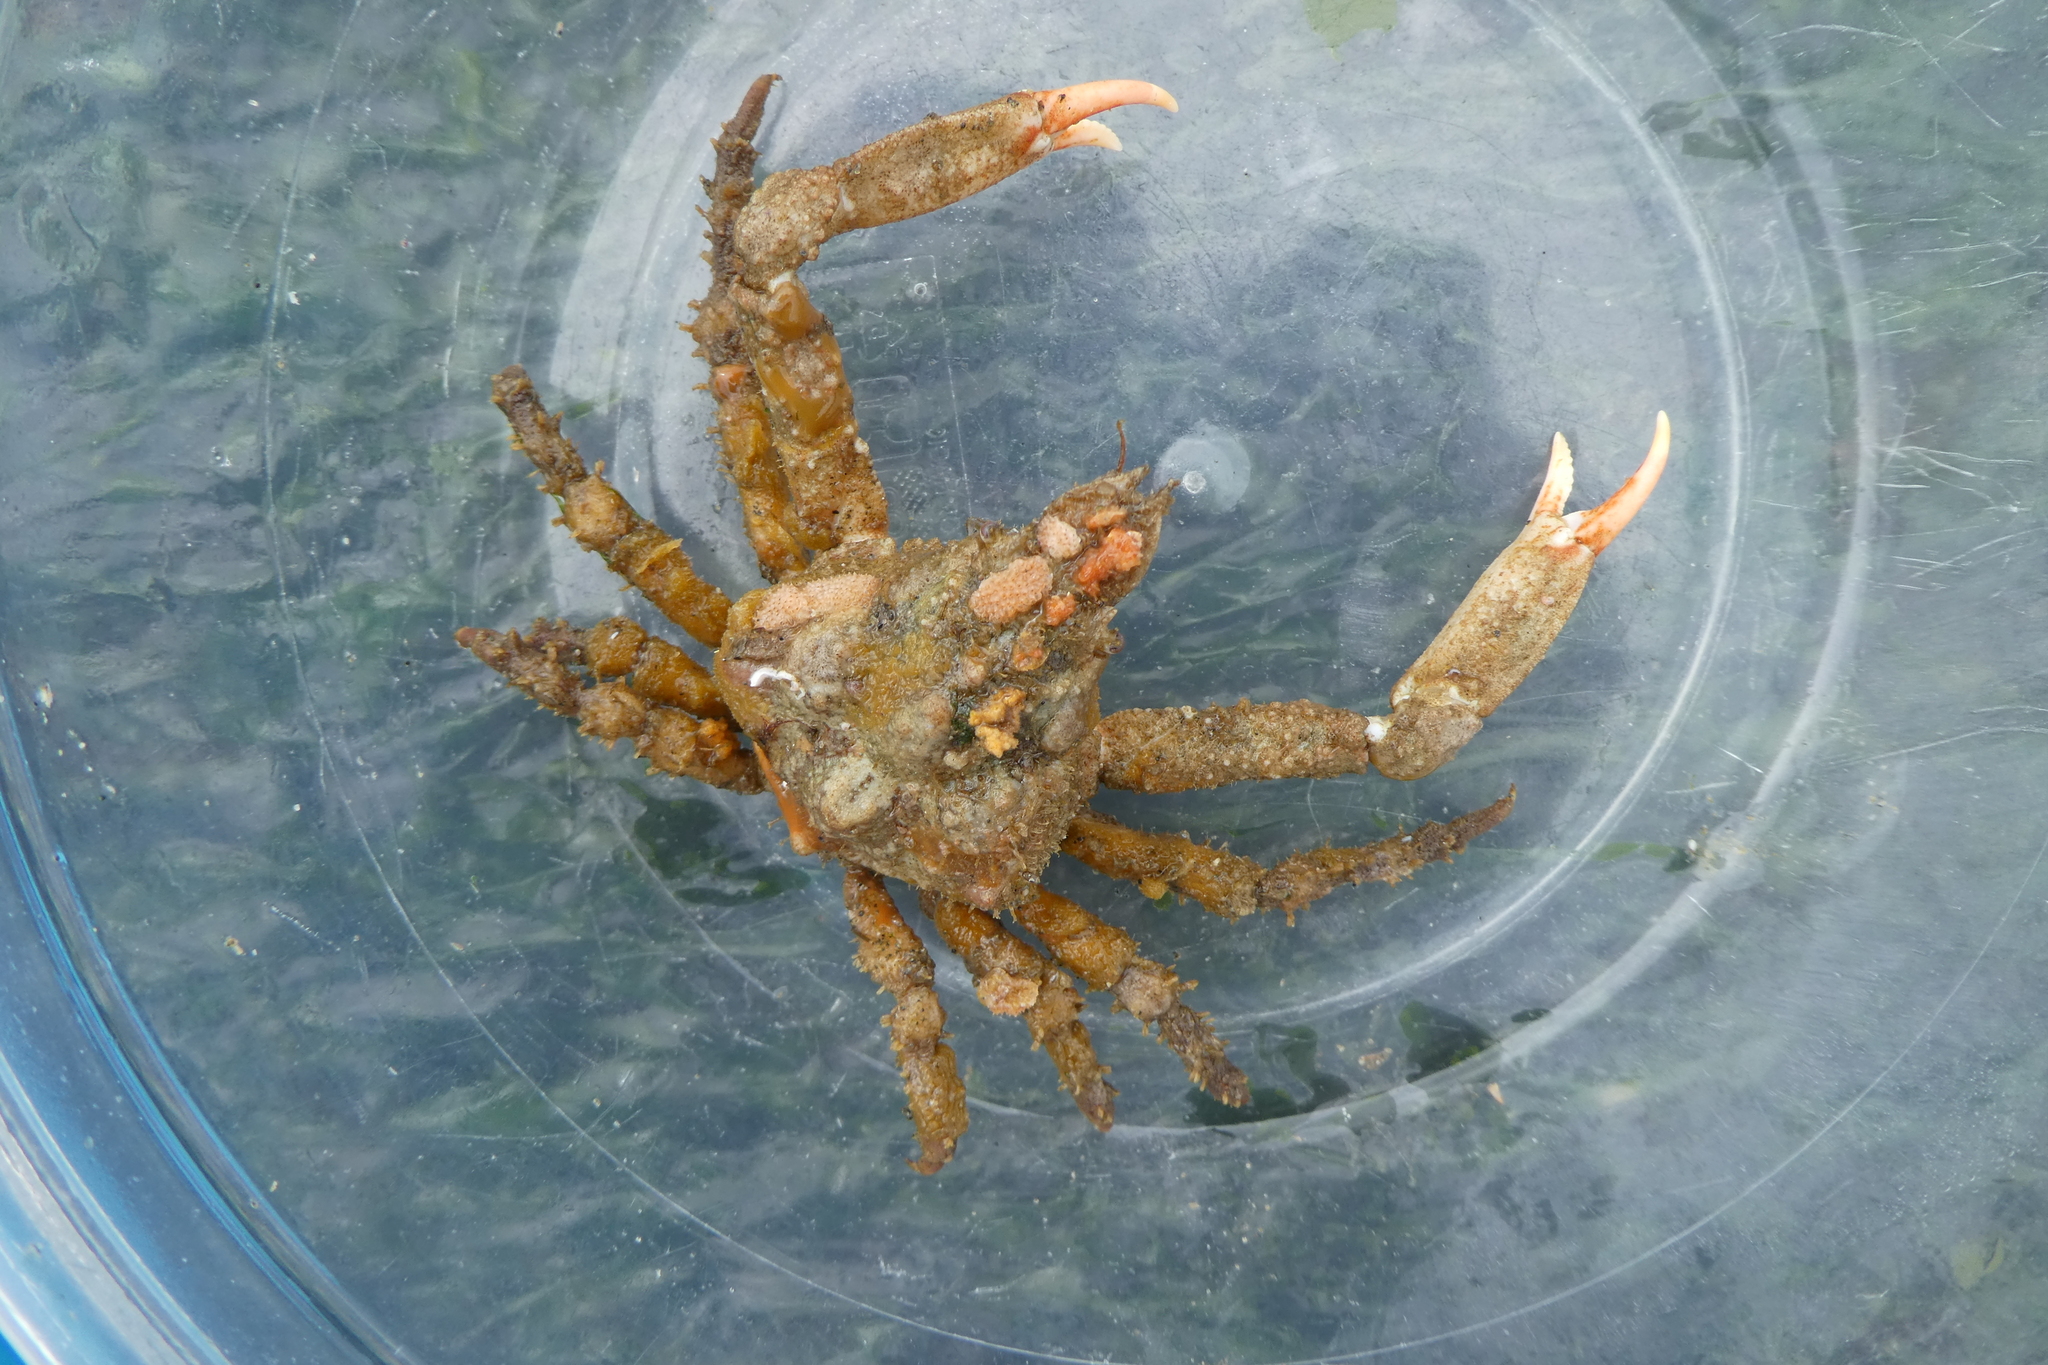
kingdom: Animalia
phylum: Arthropoda
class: Malacostraca
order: Decapoda
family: Epialtidae
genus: Scyra
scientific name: Scyra acutifrons
